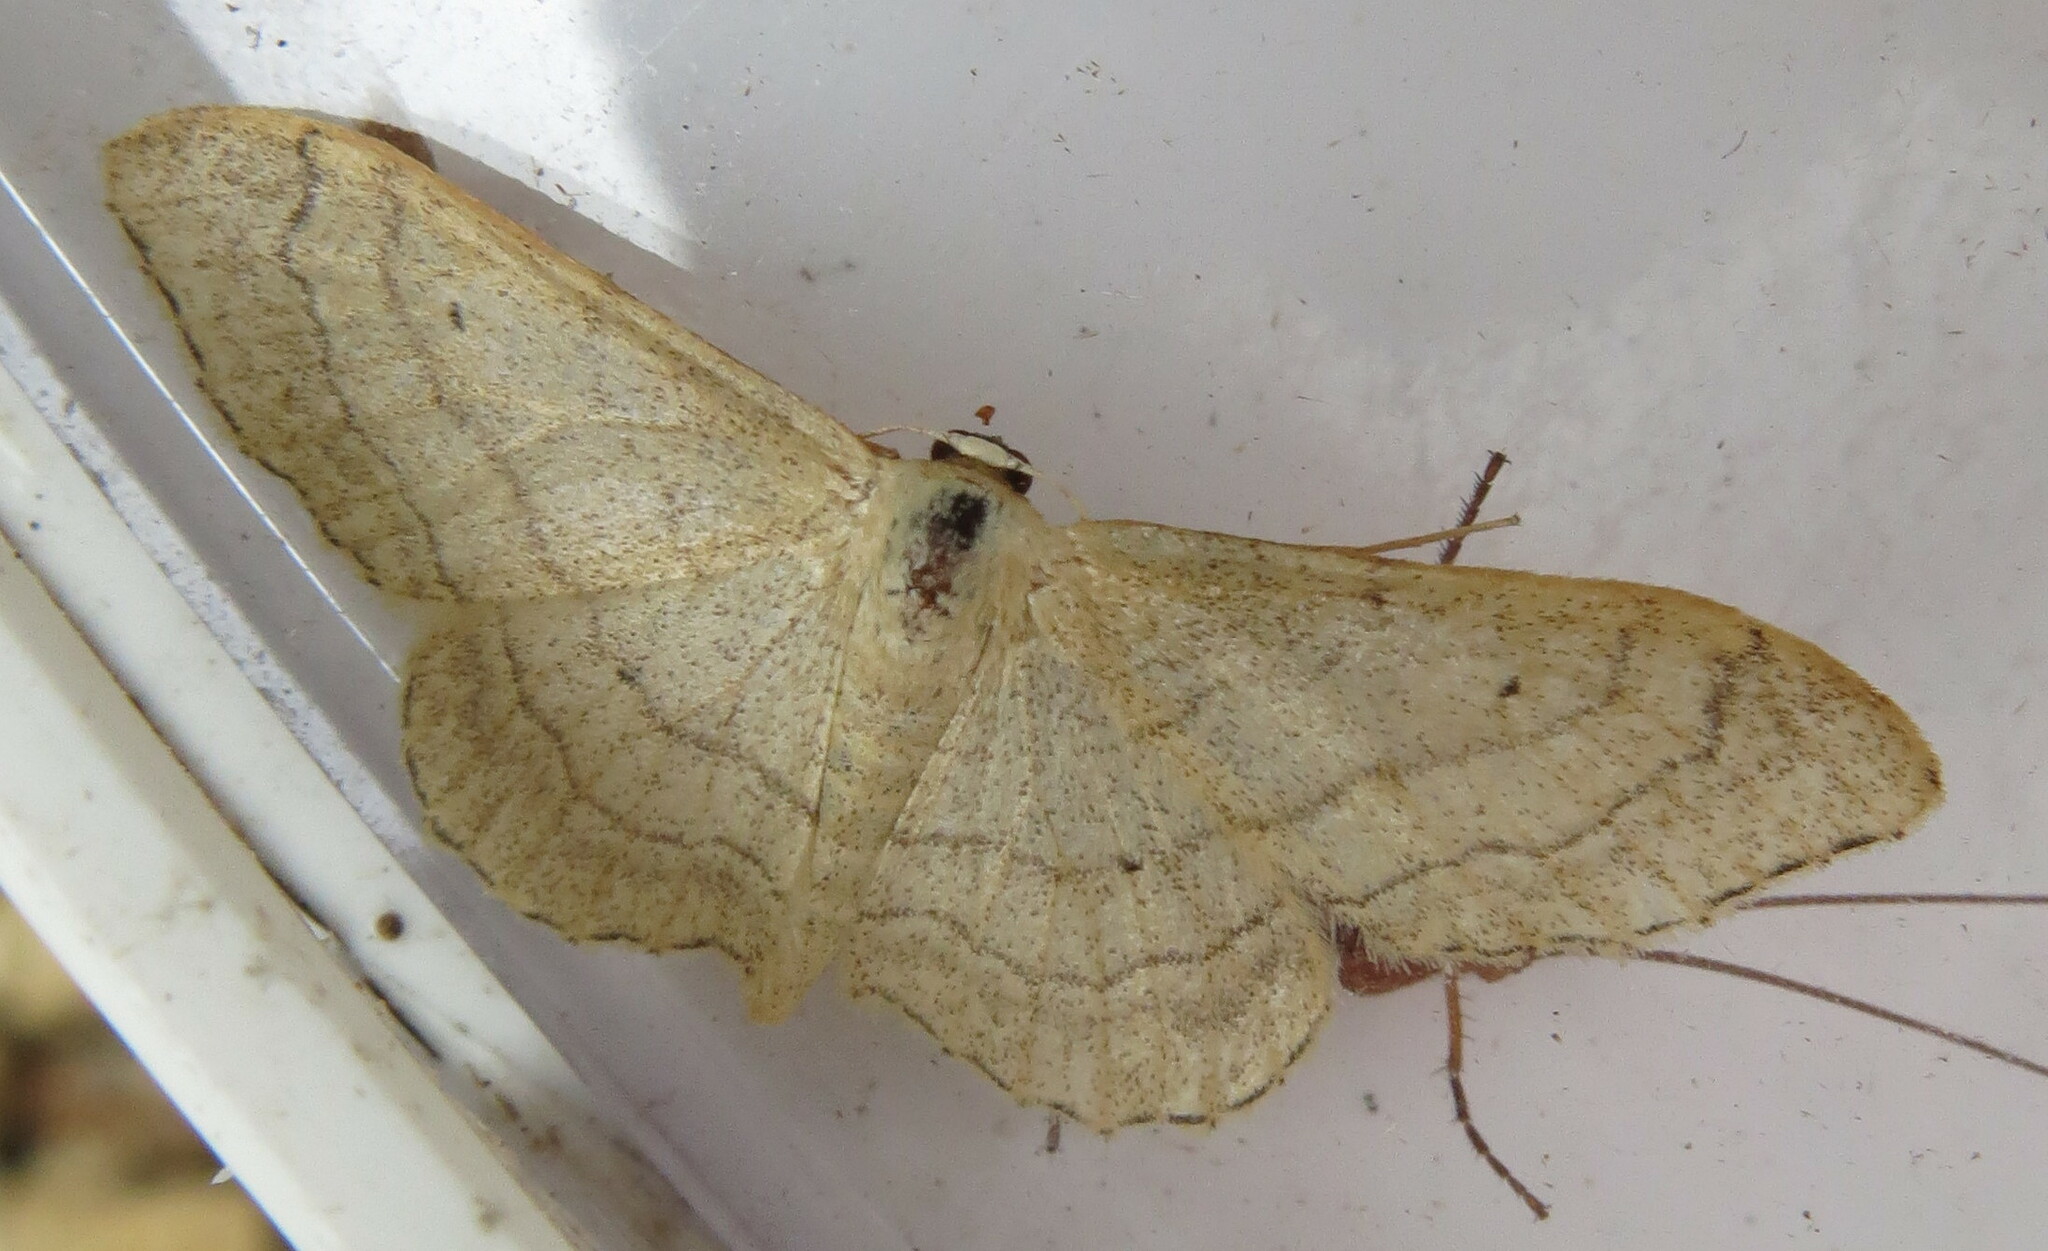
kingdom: Animalia
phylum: Arthropoda
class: Insecta
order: Lepidoptera
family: Geometridae
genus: Idaea
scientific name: Idaea aversata
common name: Riband wave
